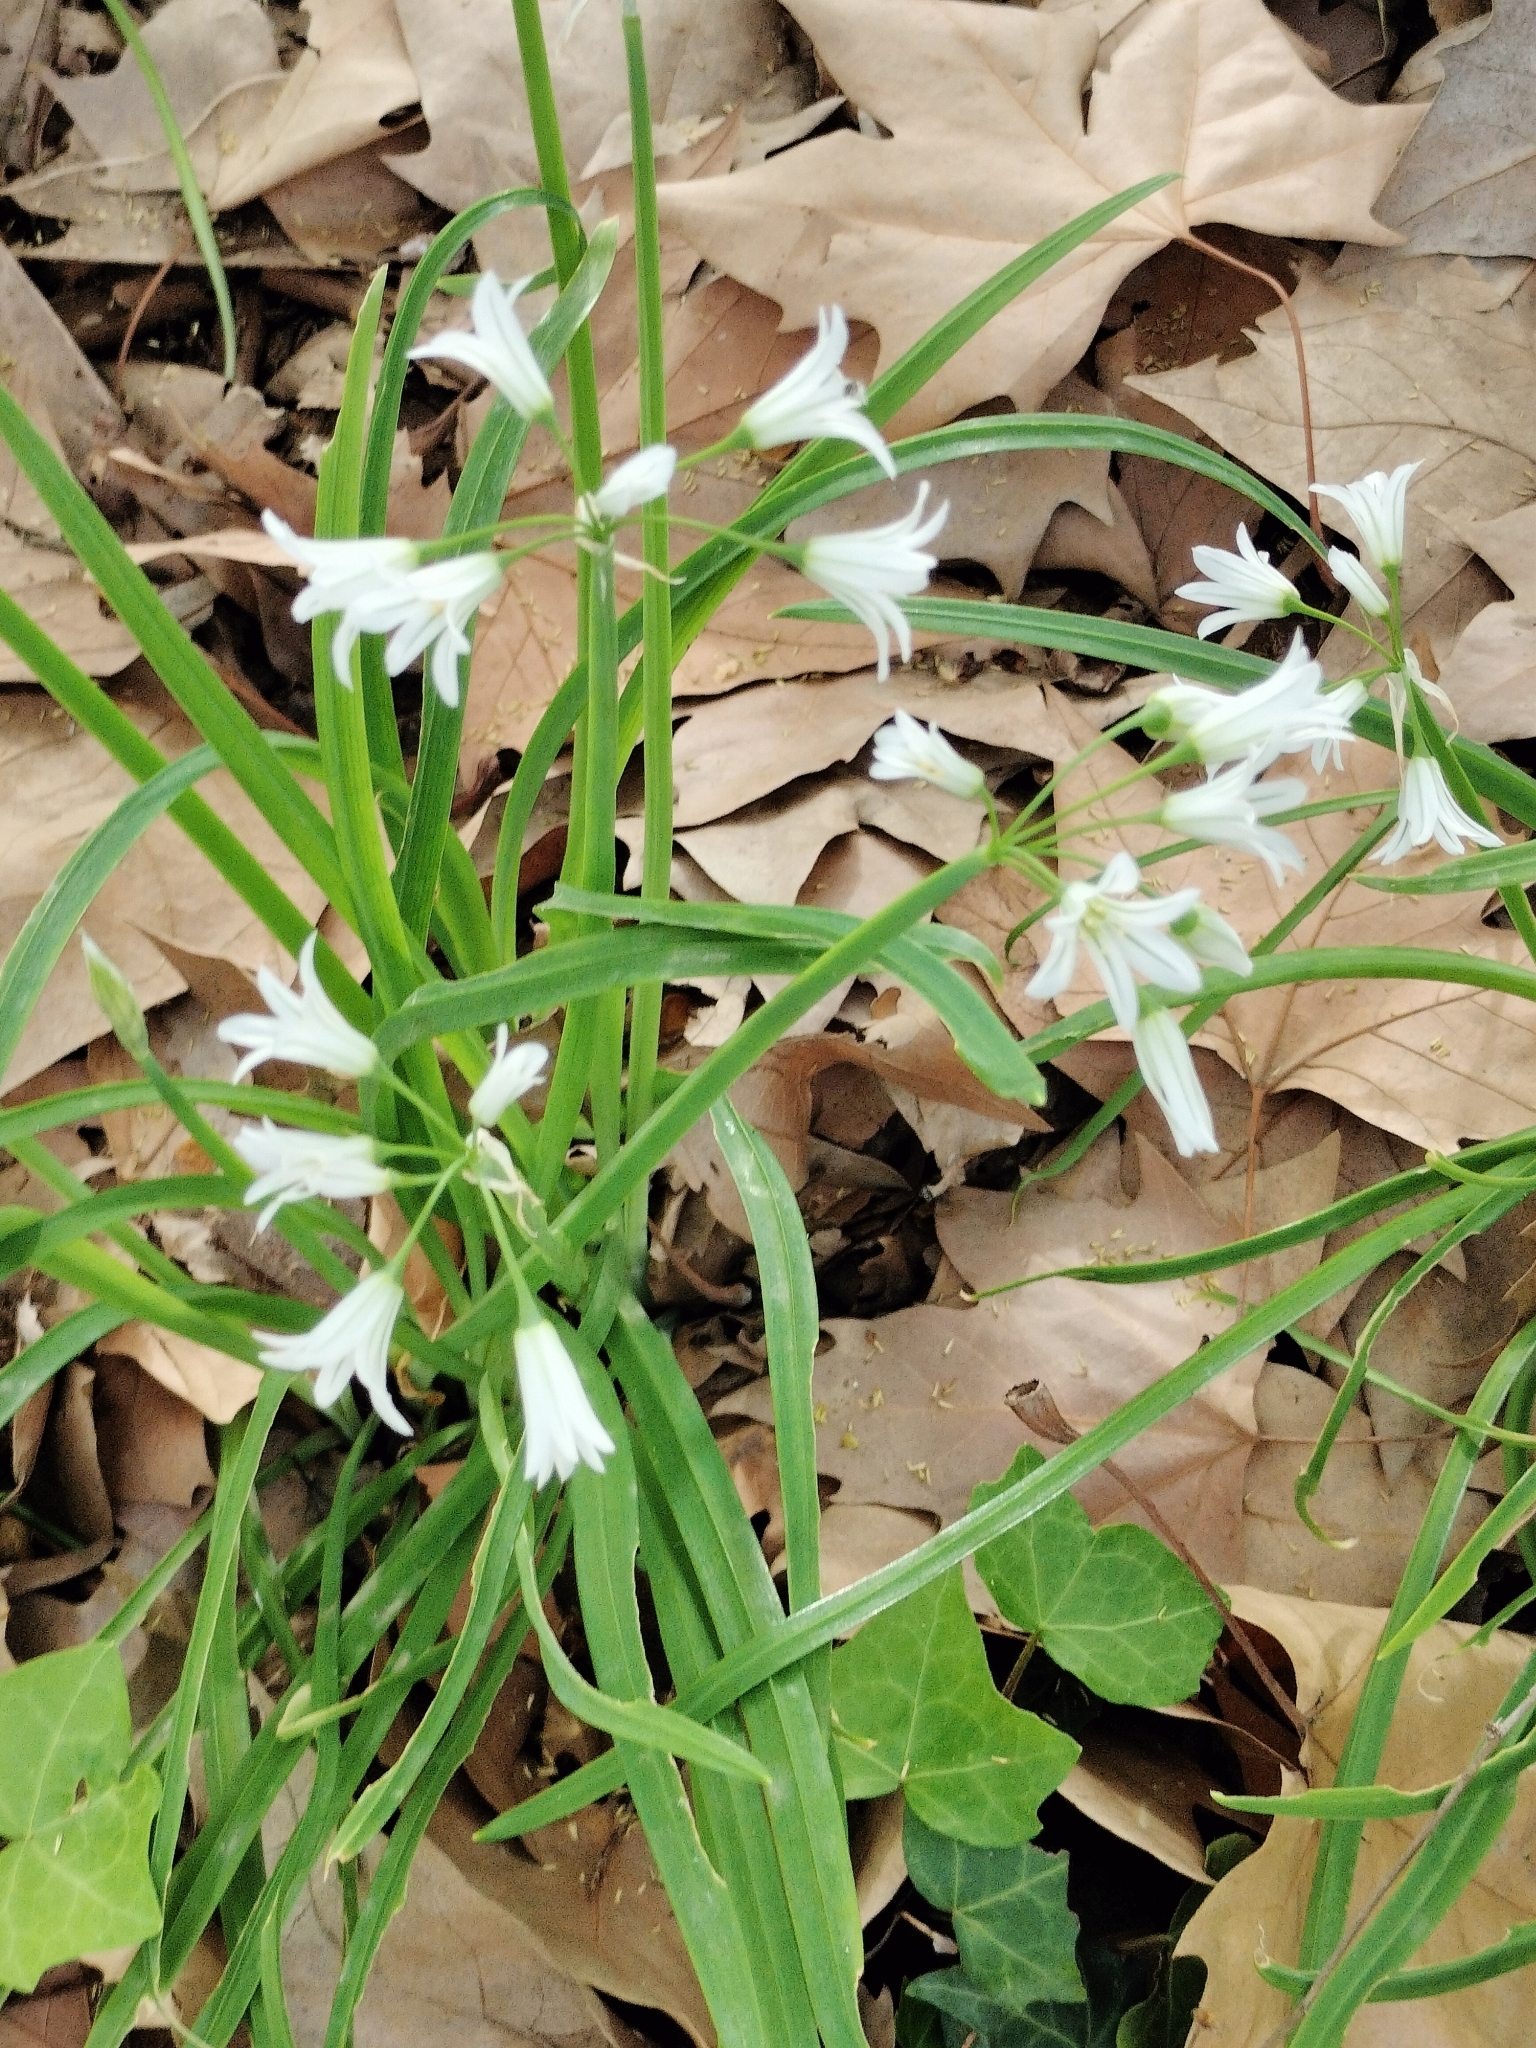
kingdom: Plantae
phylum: Tracheophyta
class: Liliopsida
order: Asparagales
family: Amaryllidaceae
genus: Allium
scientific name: Allium triquetrum
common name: Three-cornered garlic
